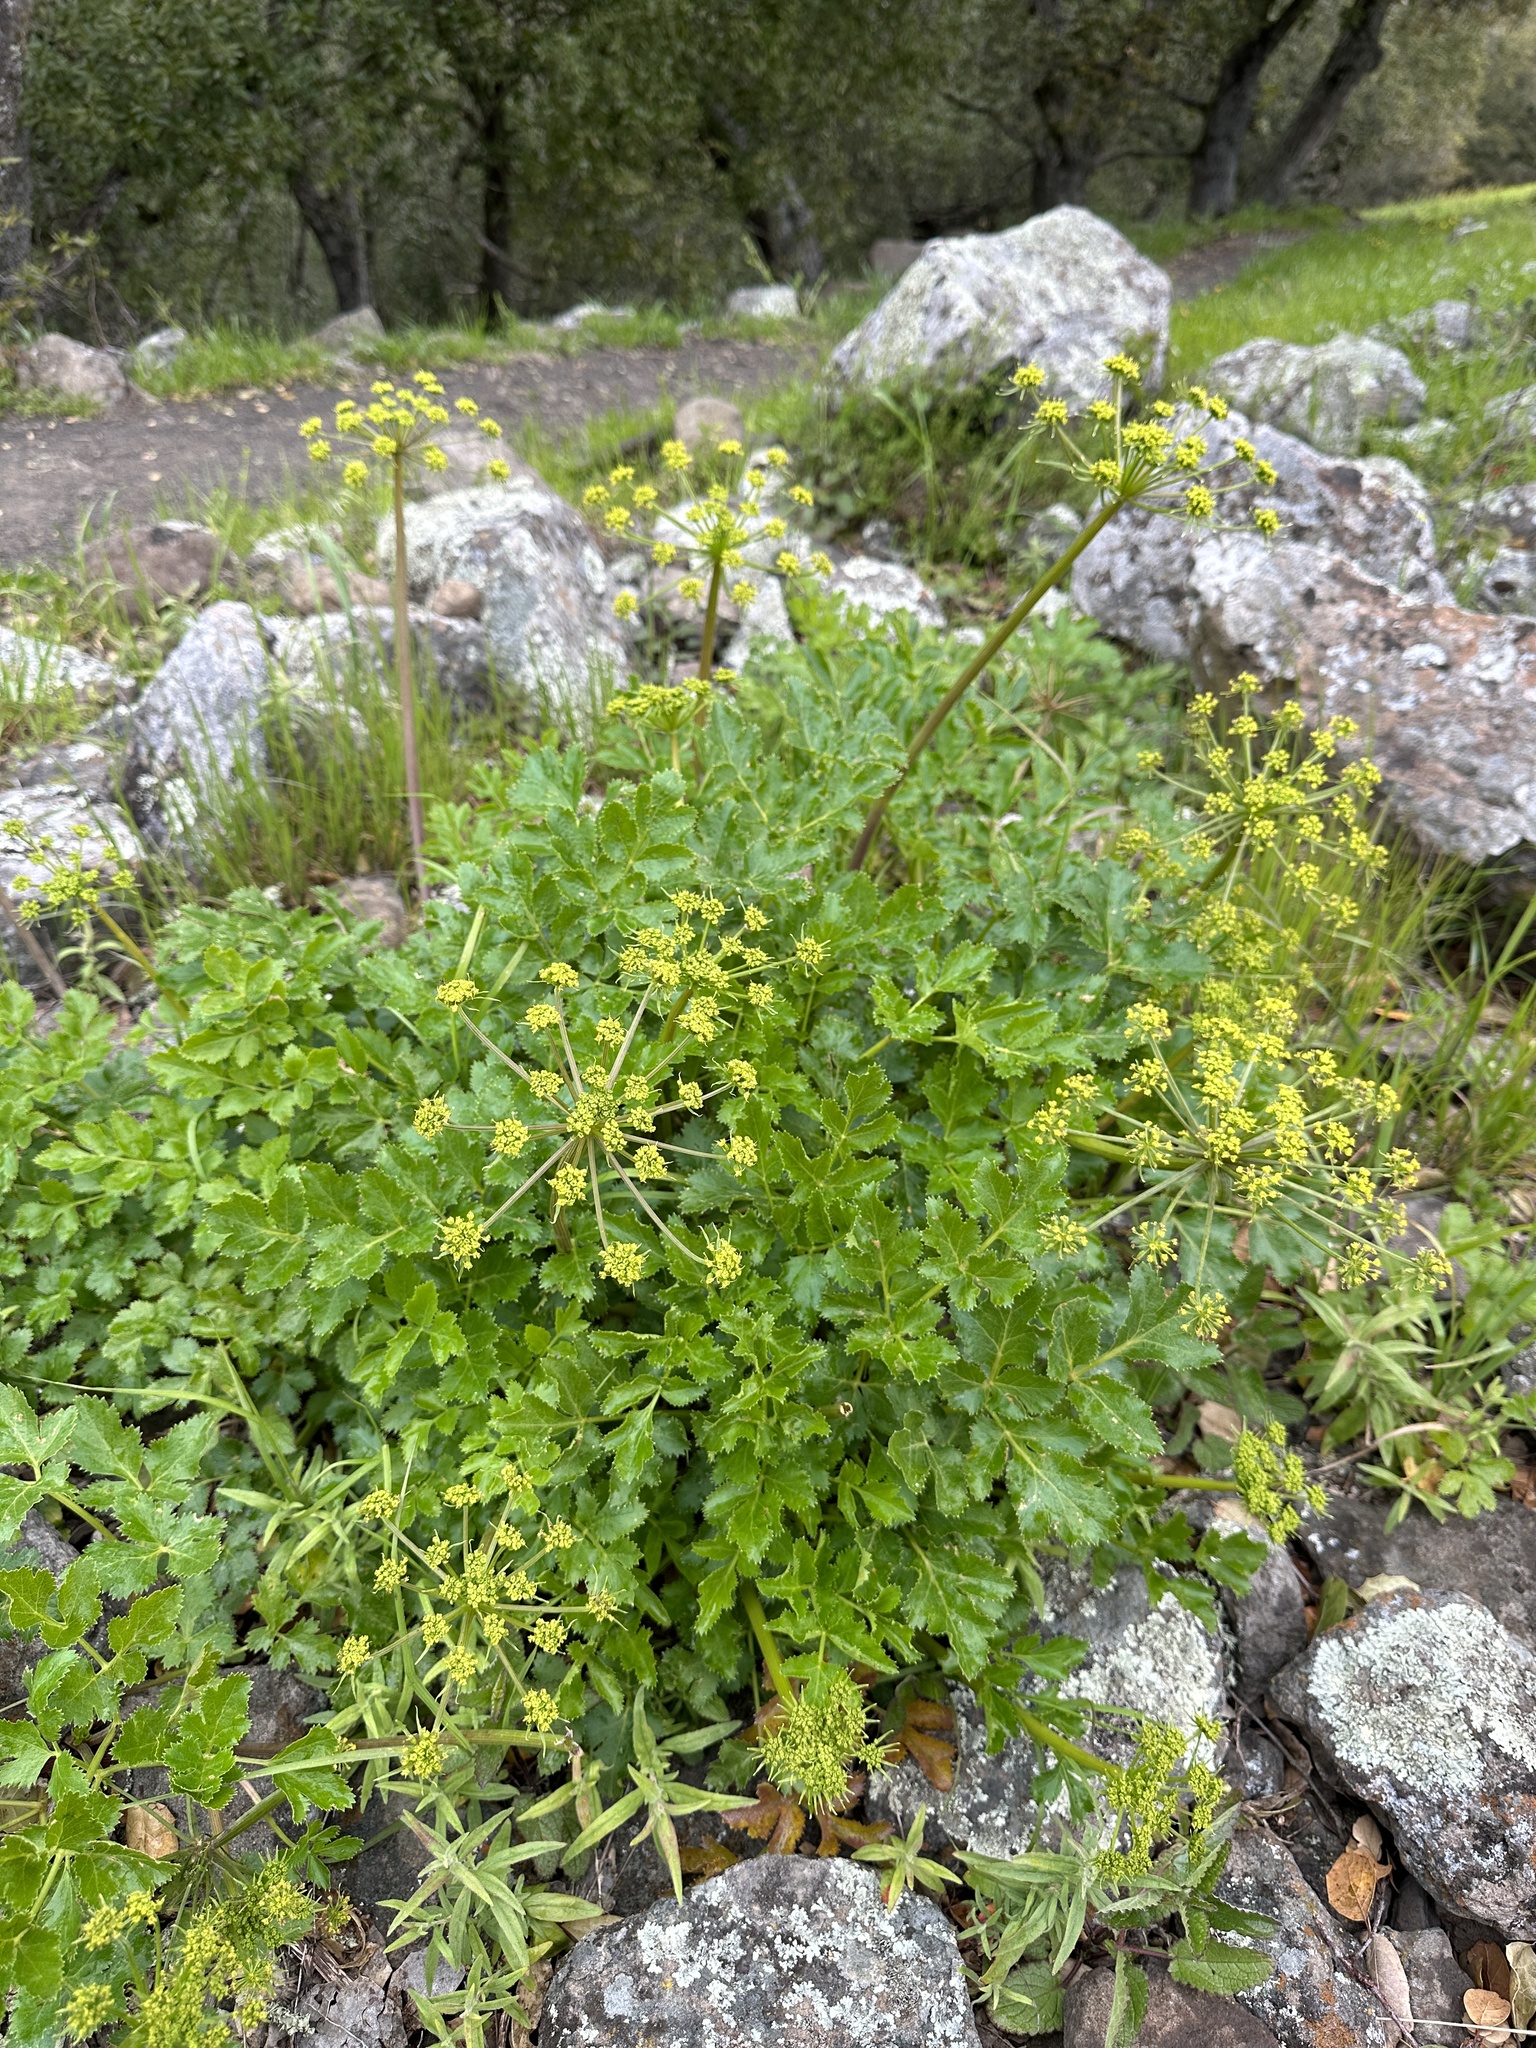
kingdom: Plantae
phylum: Tracheophyta
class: Magnoliopsida
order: Apiales
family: Apiaceae
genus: Tauschia
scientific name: Tauschia hartwegii
